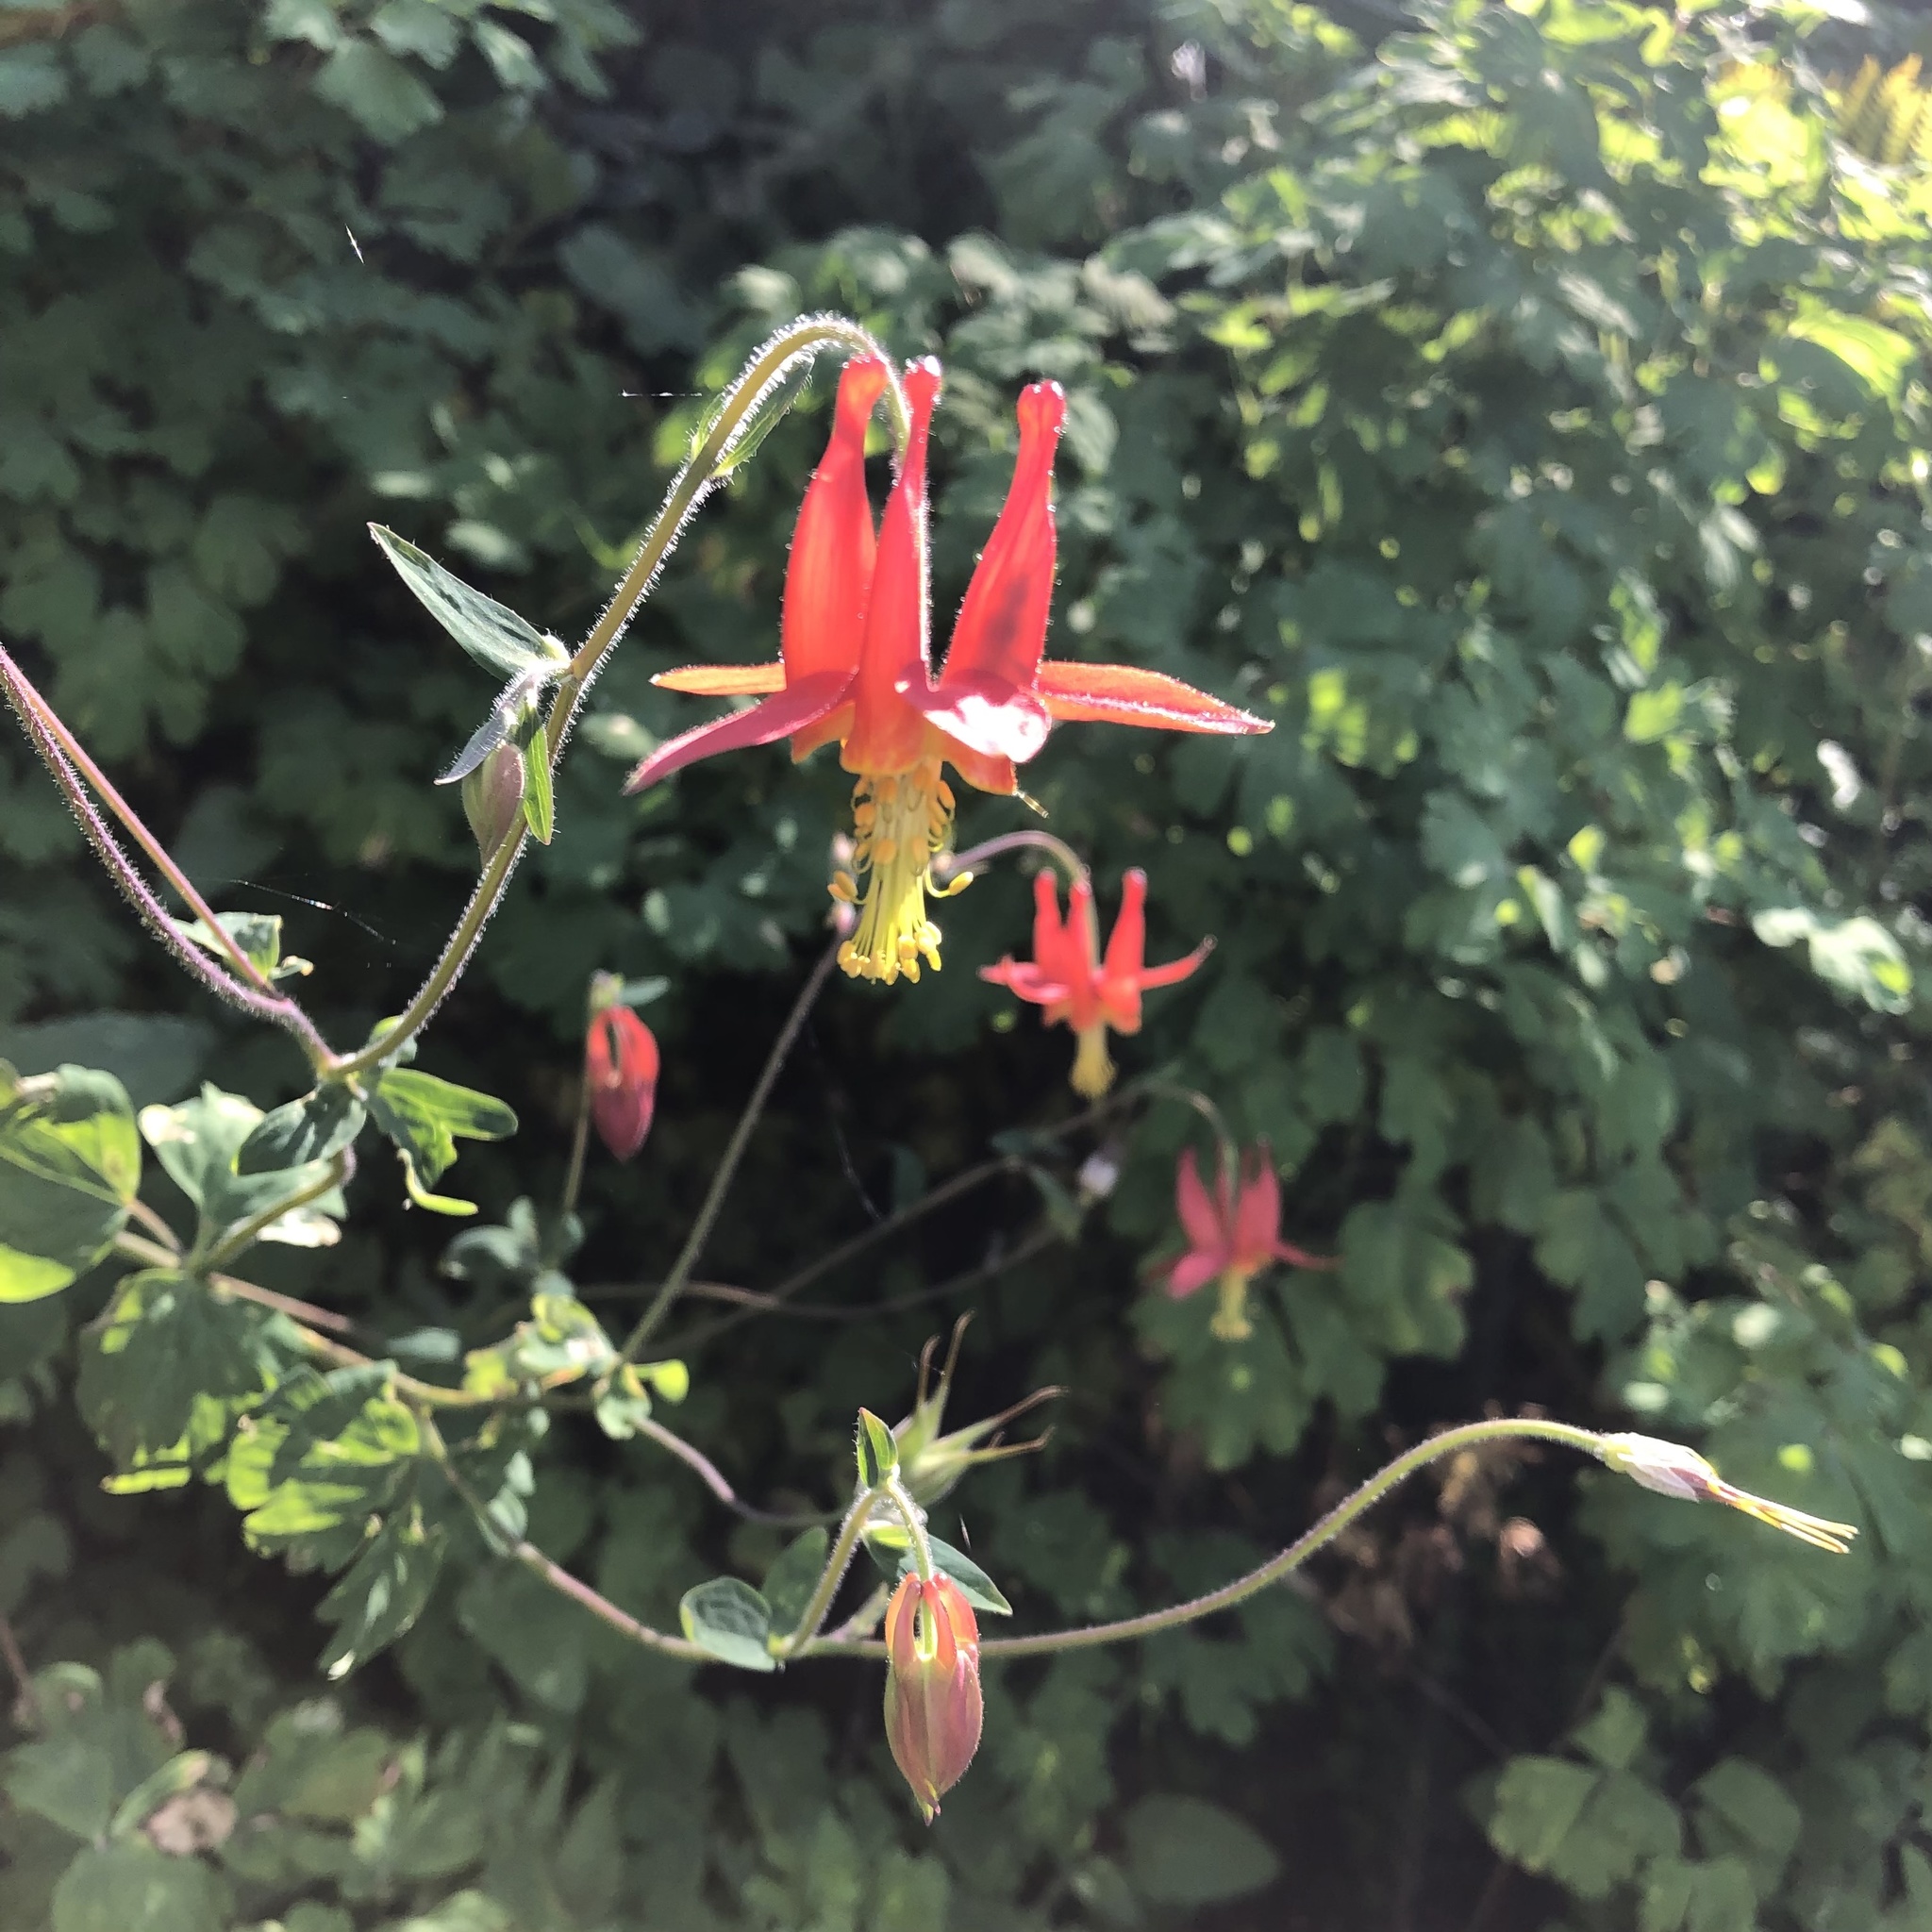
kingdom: Plantae
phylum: Tracheophyta
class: Magnoliopsida
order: Ranunculales
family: Ranunculaceae
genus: Aquilegia
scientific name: Aquilegia formosa
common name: Sitka columbine
